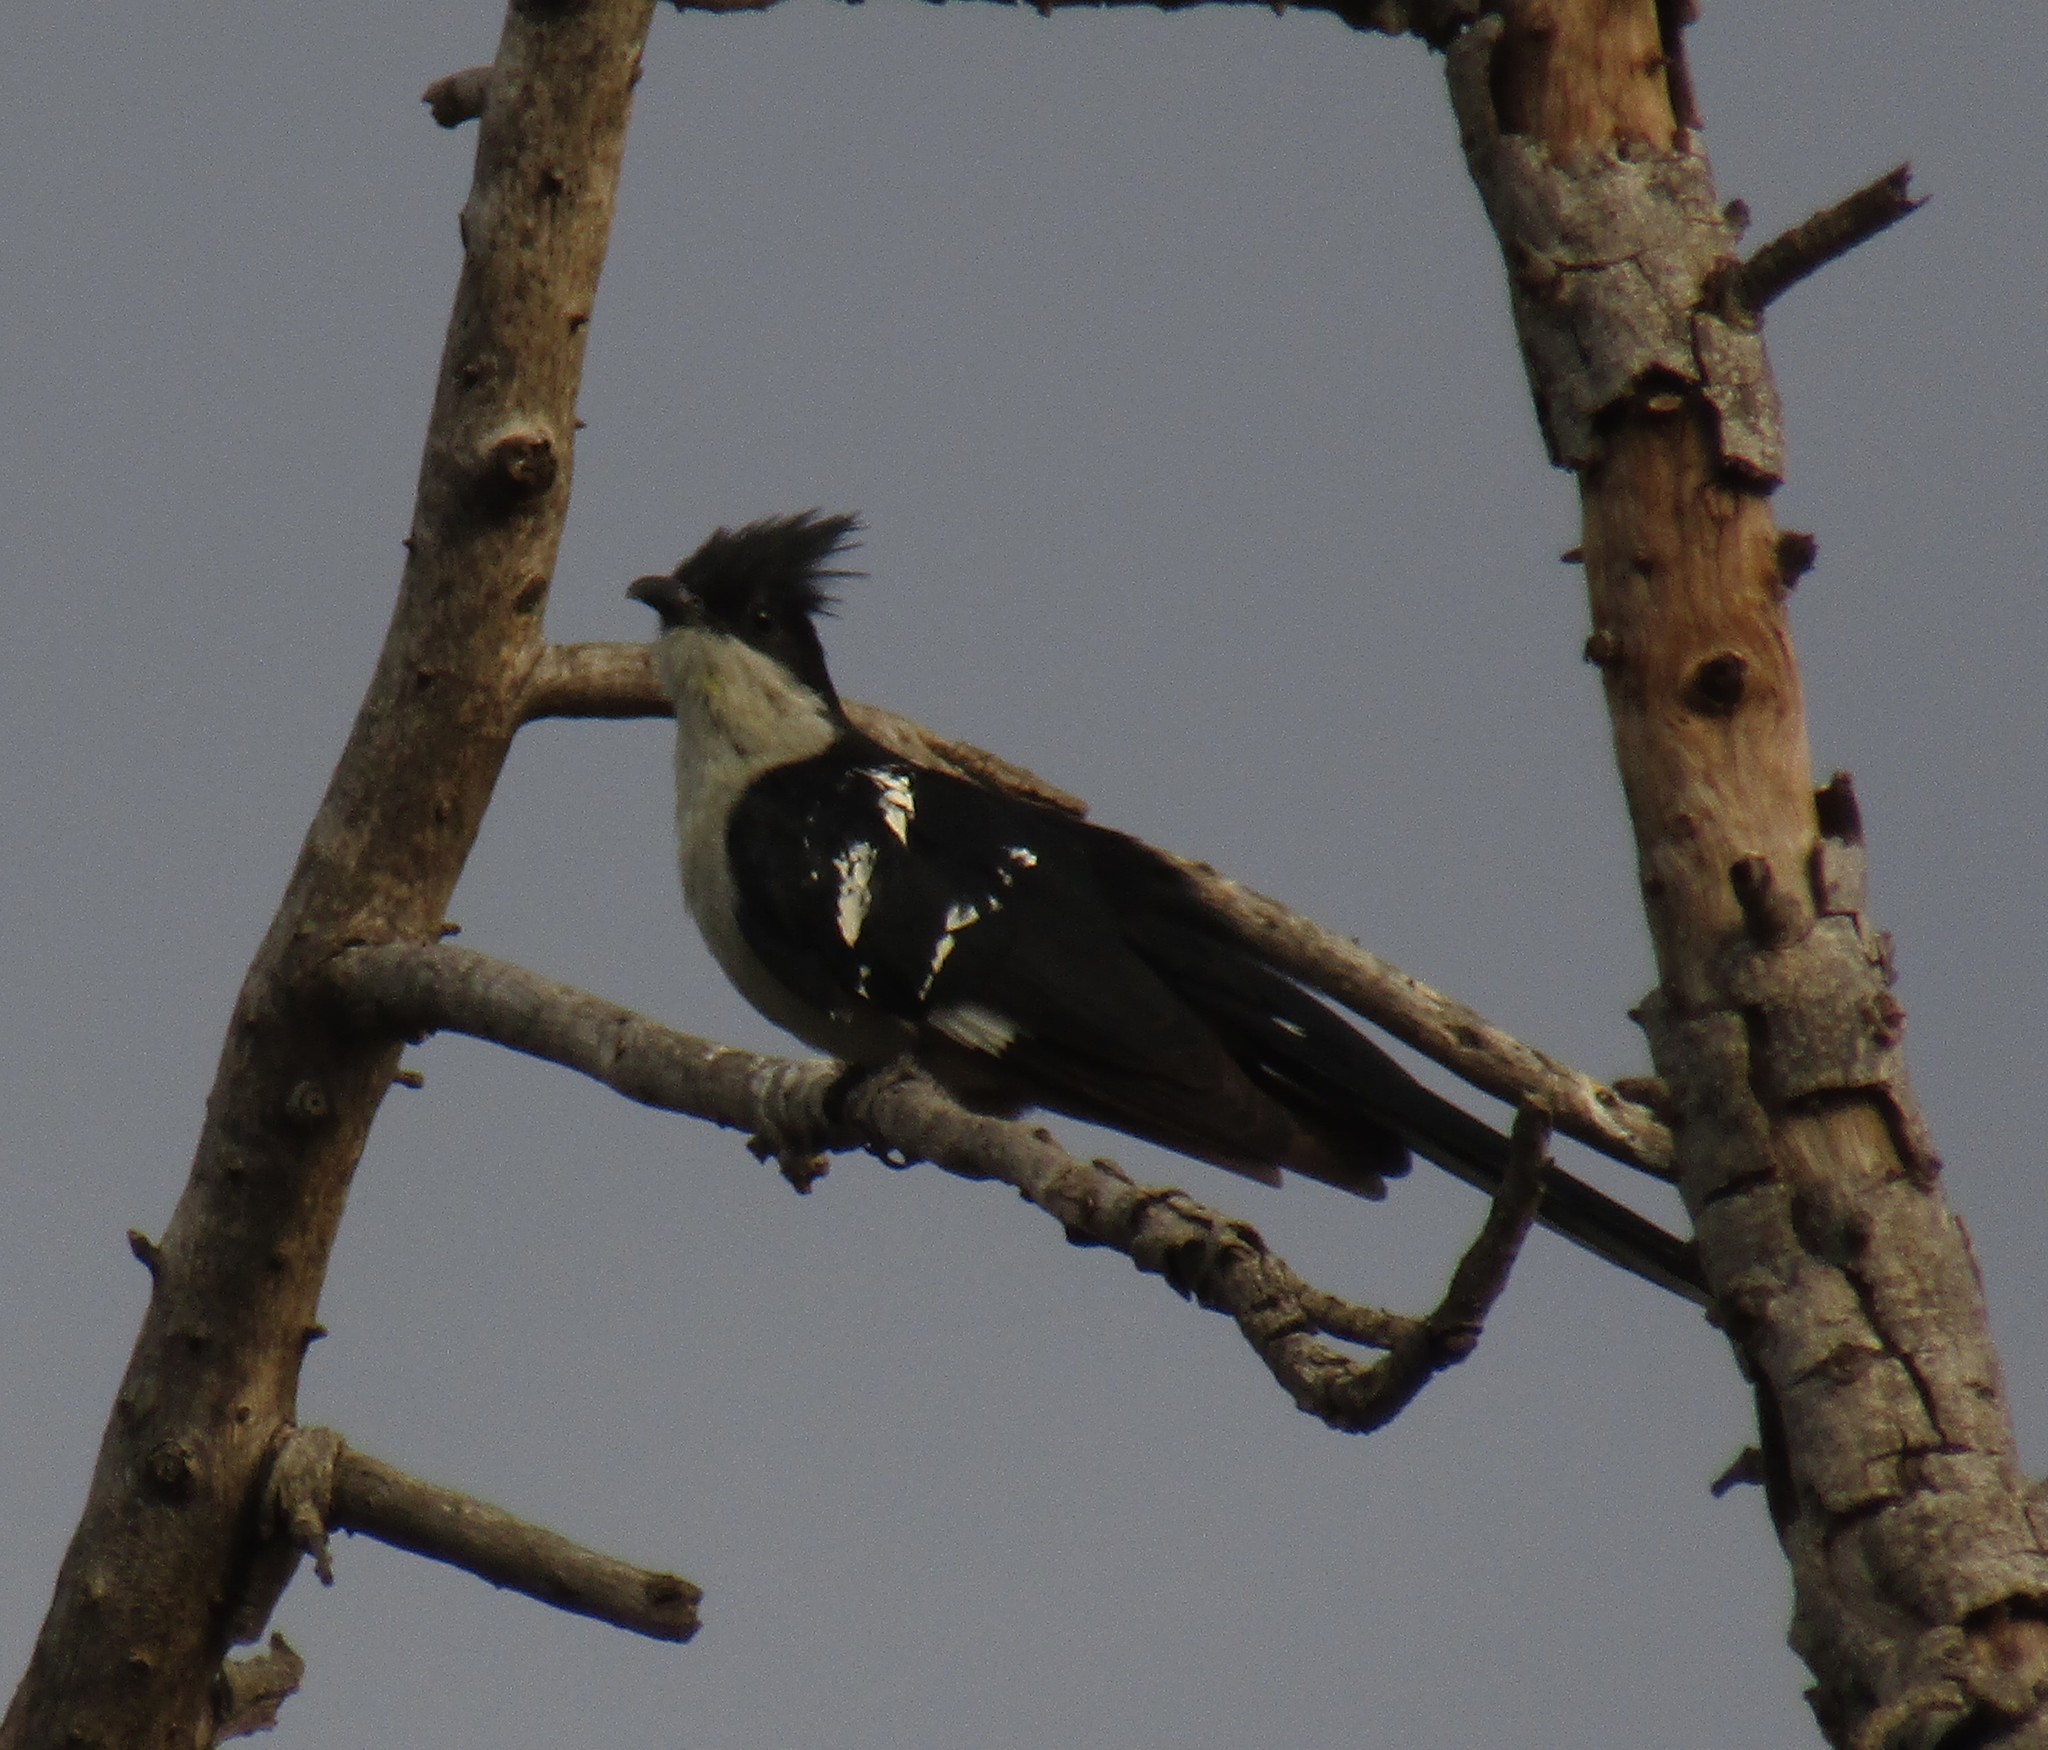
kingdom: Animalia
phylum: Chordata
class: Aves
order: Cuculiformes
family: Cuculidae
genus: Clamator
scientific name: Clamator jacobinus
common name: Jacobin cuckoo
